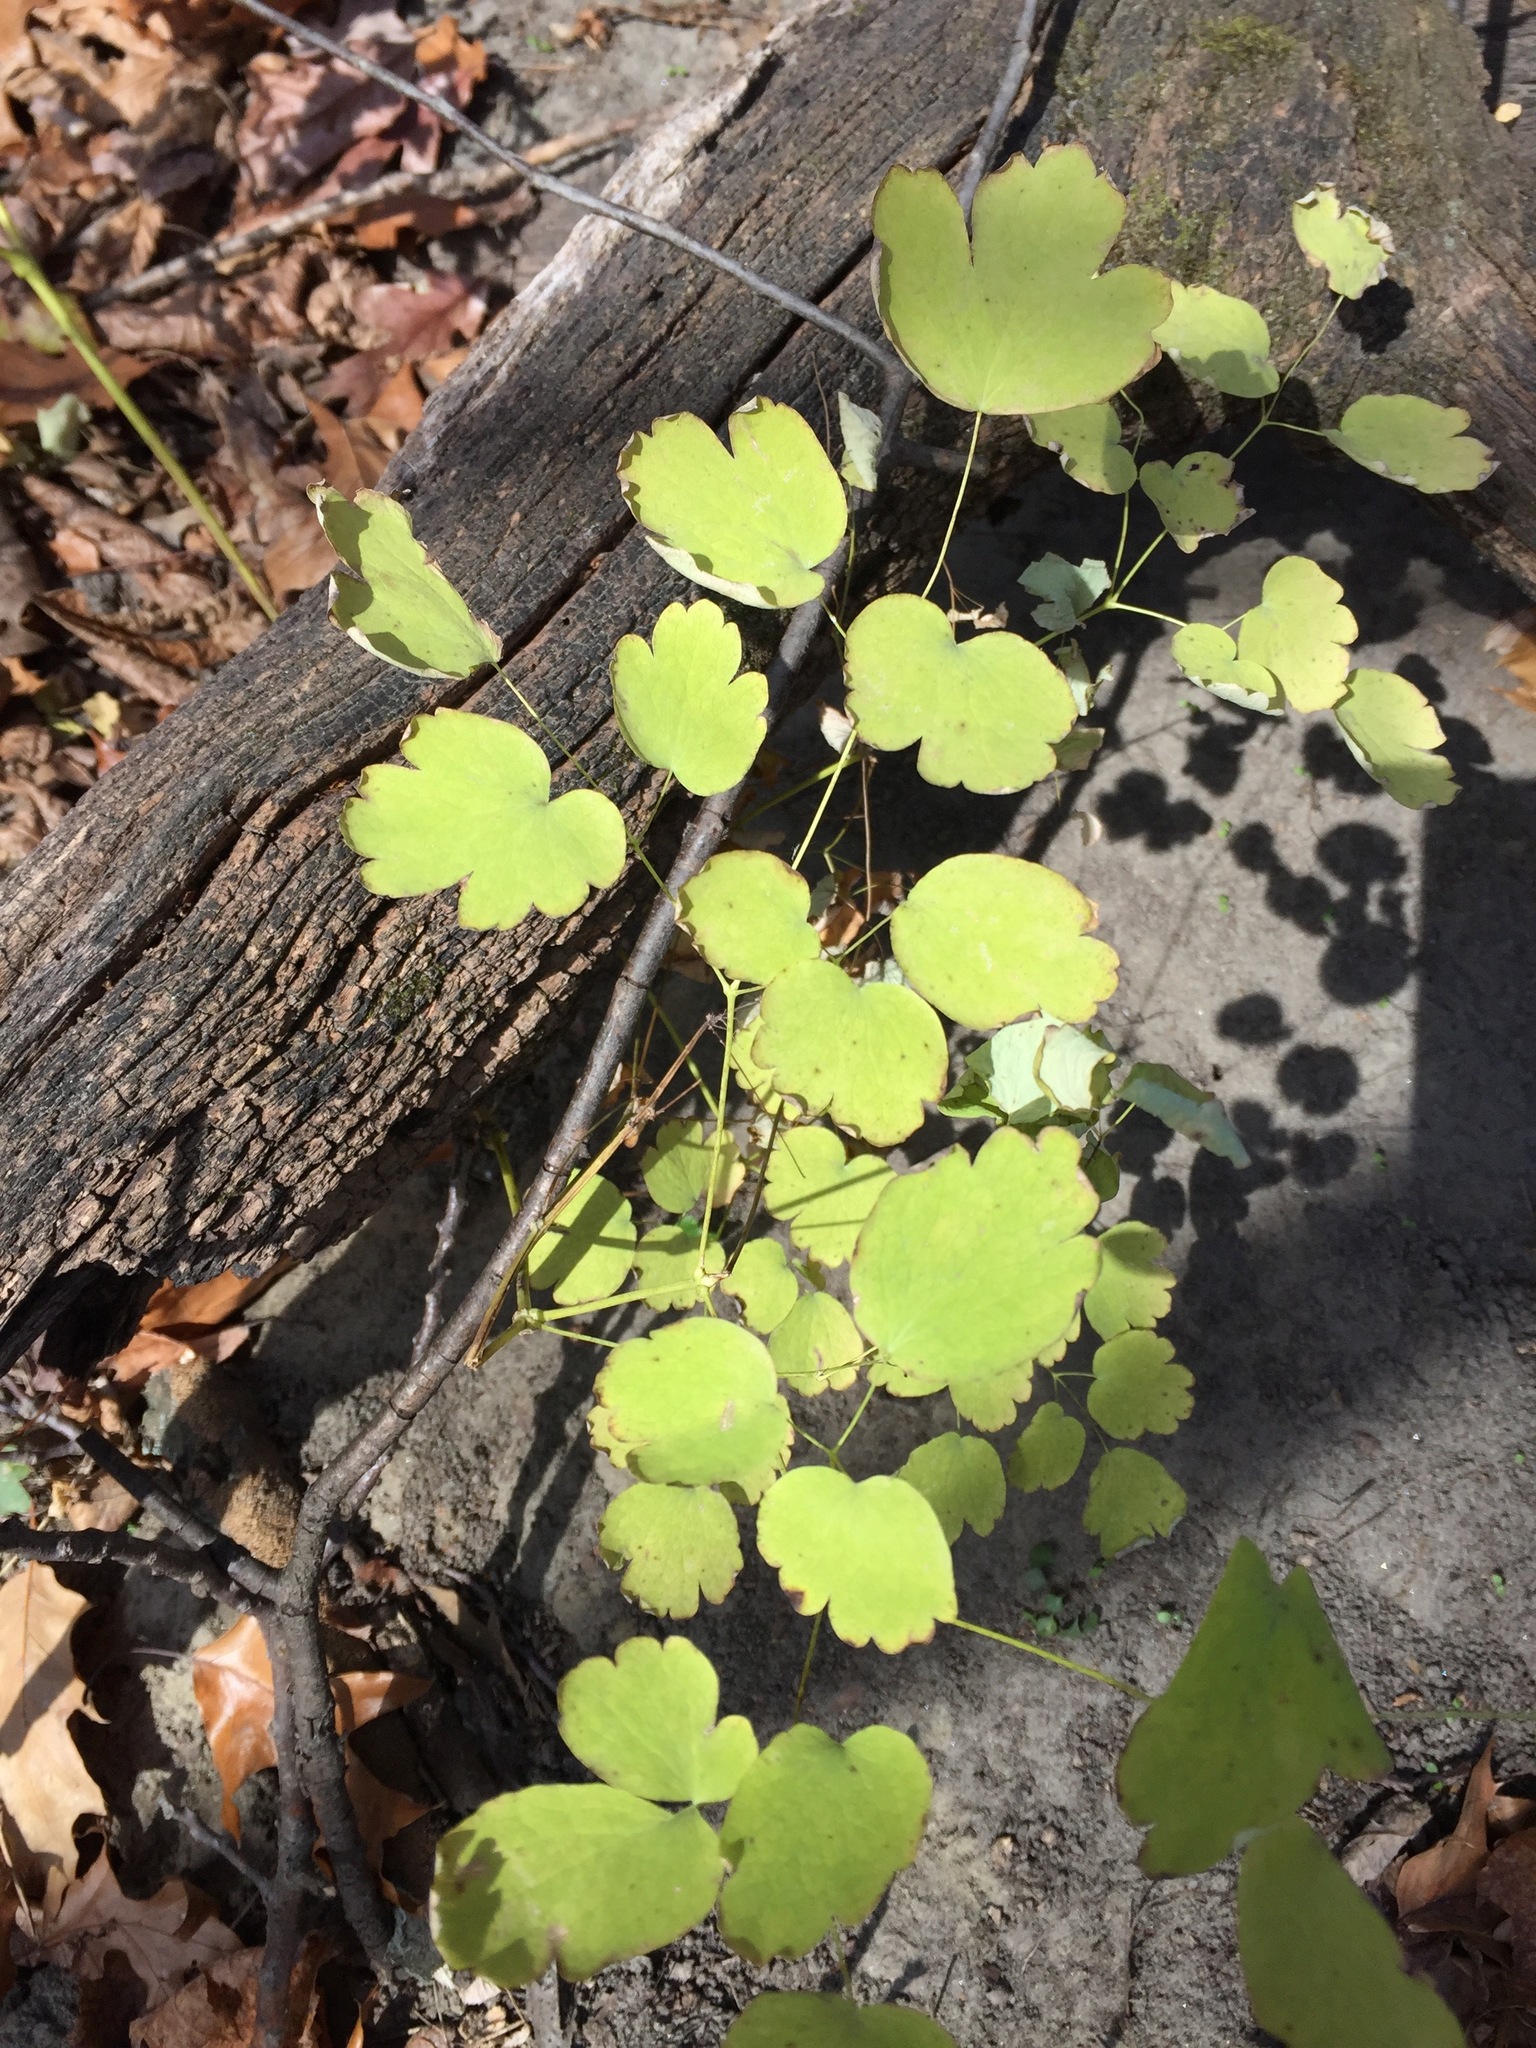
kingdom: Plantae
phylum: Tracheophyta
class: Magnoliopsida
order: Ranunculales
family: Ranunculaceae
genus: Thalictrum
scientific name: Thalictrum dioicum
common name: Early meadow-rue
